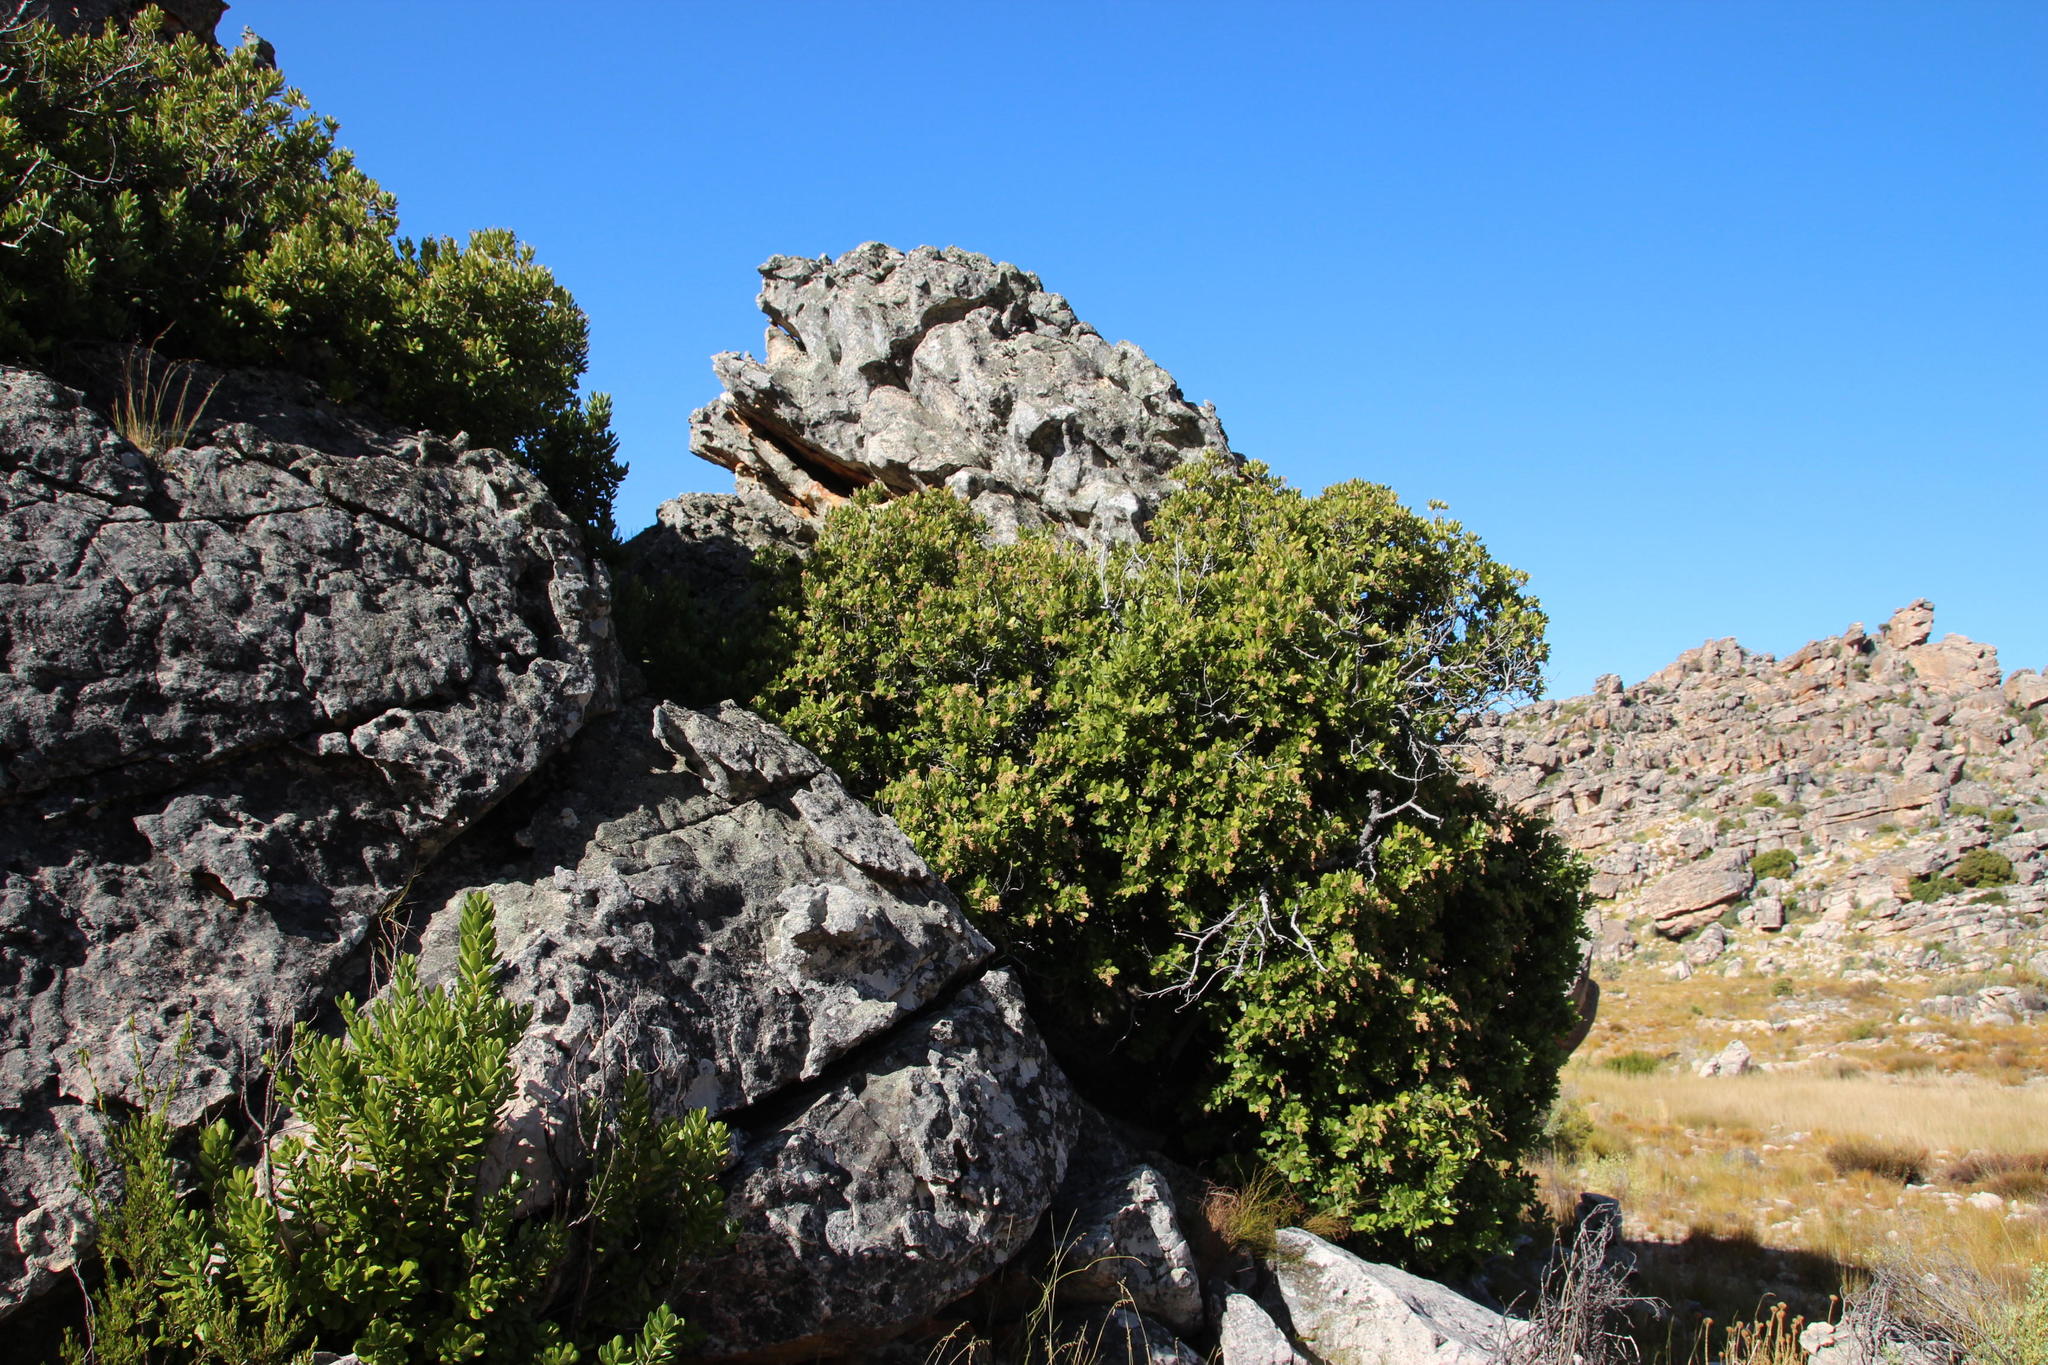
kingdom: Plantae
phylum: Tracheophyta
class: Magnoliopsida
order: Sapindales
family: Anacardiaceae
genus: Heeria
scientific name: Heeria argentea
